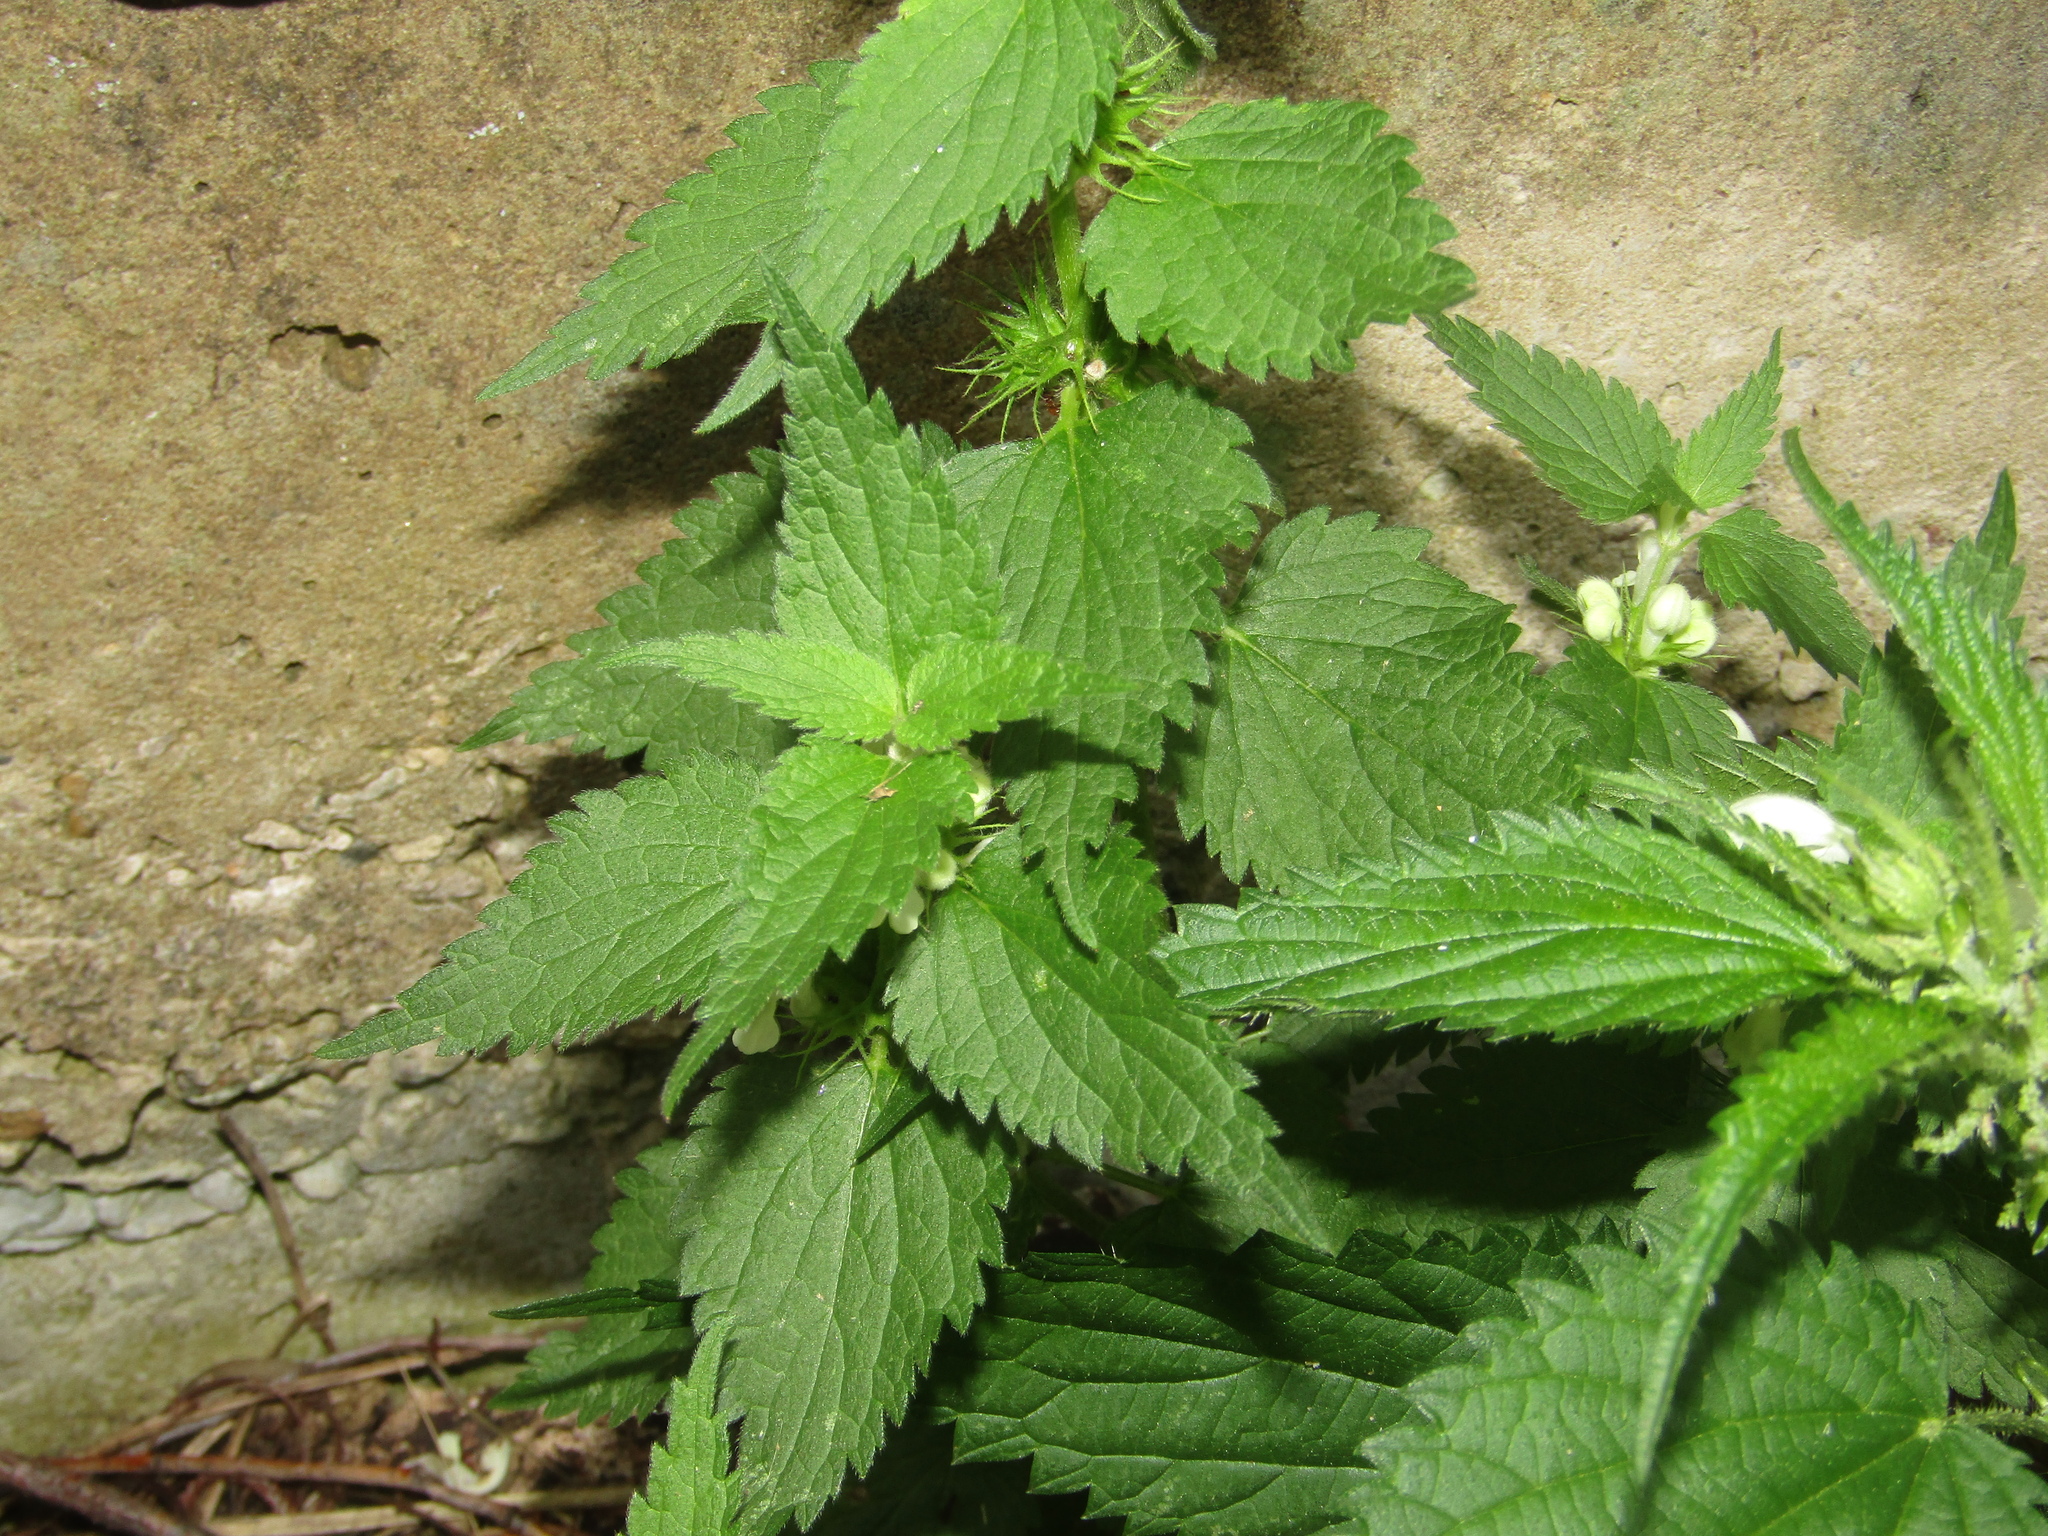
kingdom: Plantae
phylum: Tracheophyta
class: Magnoliopsida
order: Lamiales
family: Lamiaceae
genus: Lamium
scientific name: Lamium album
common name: White dead-nettle
